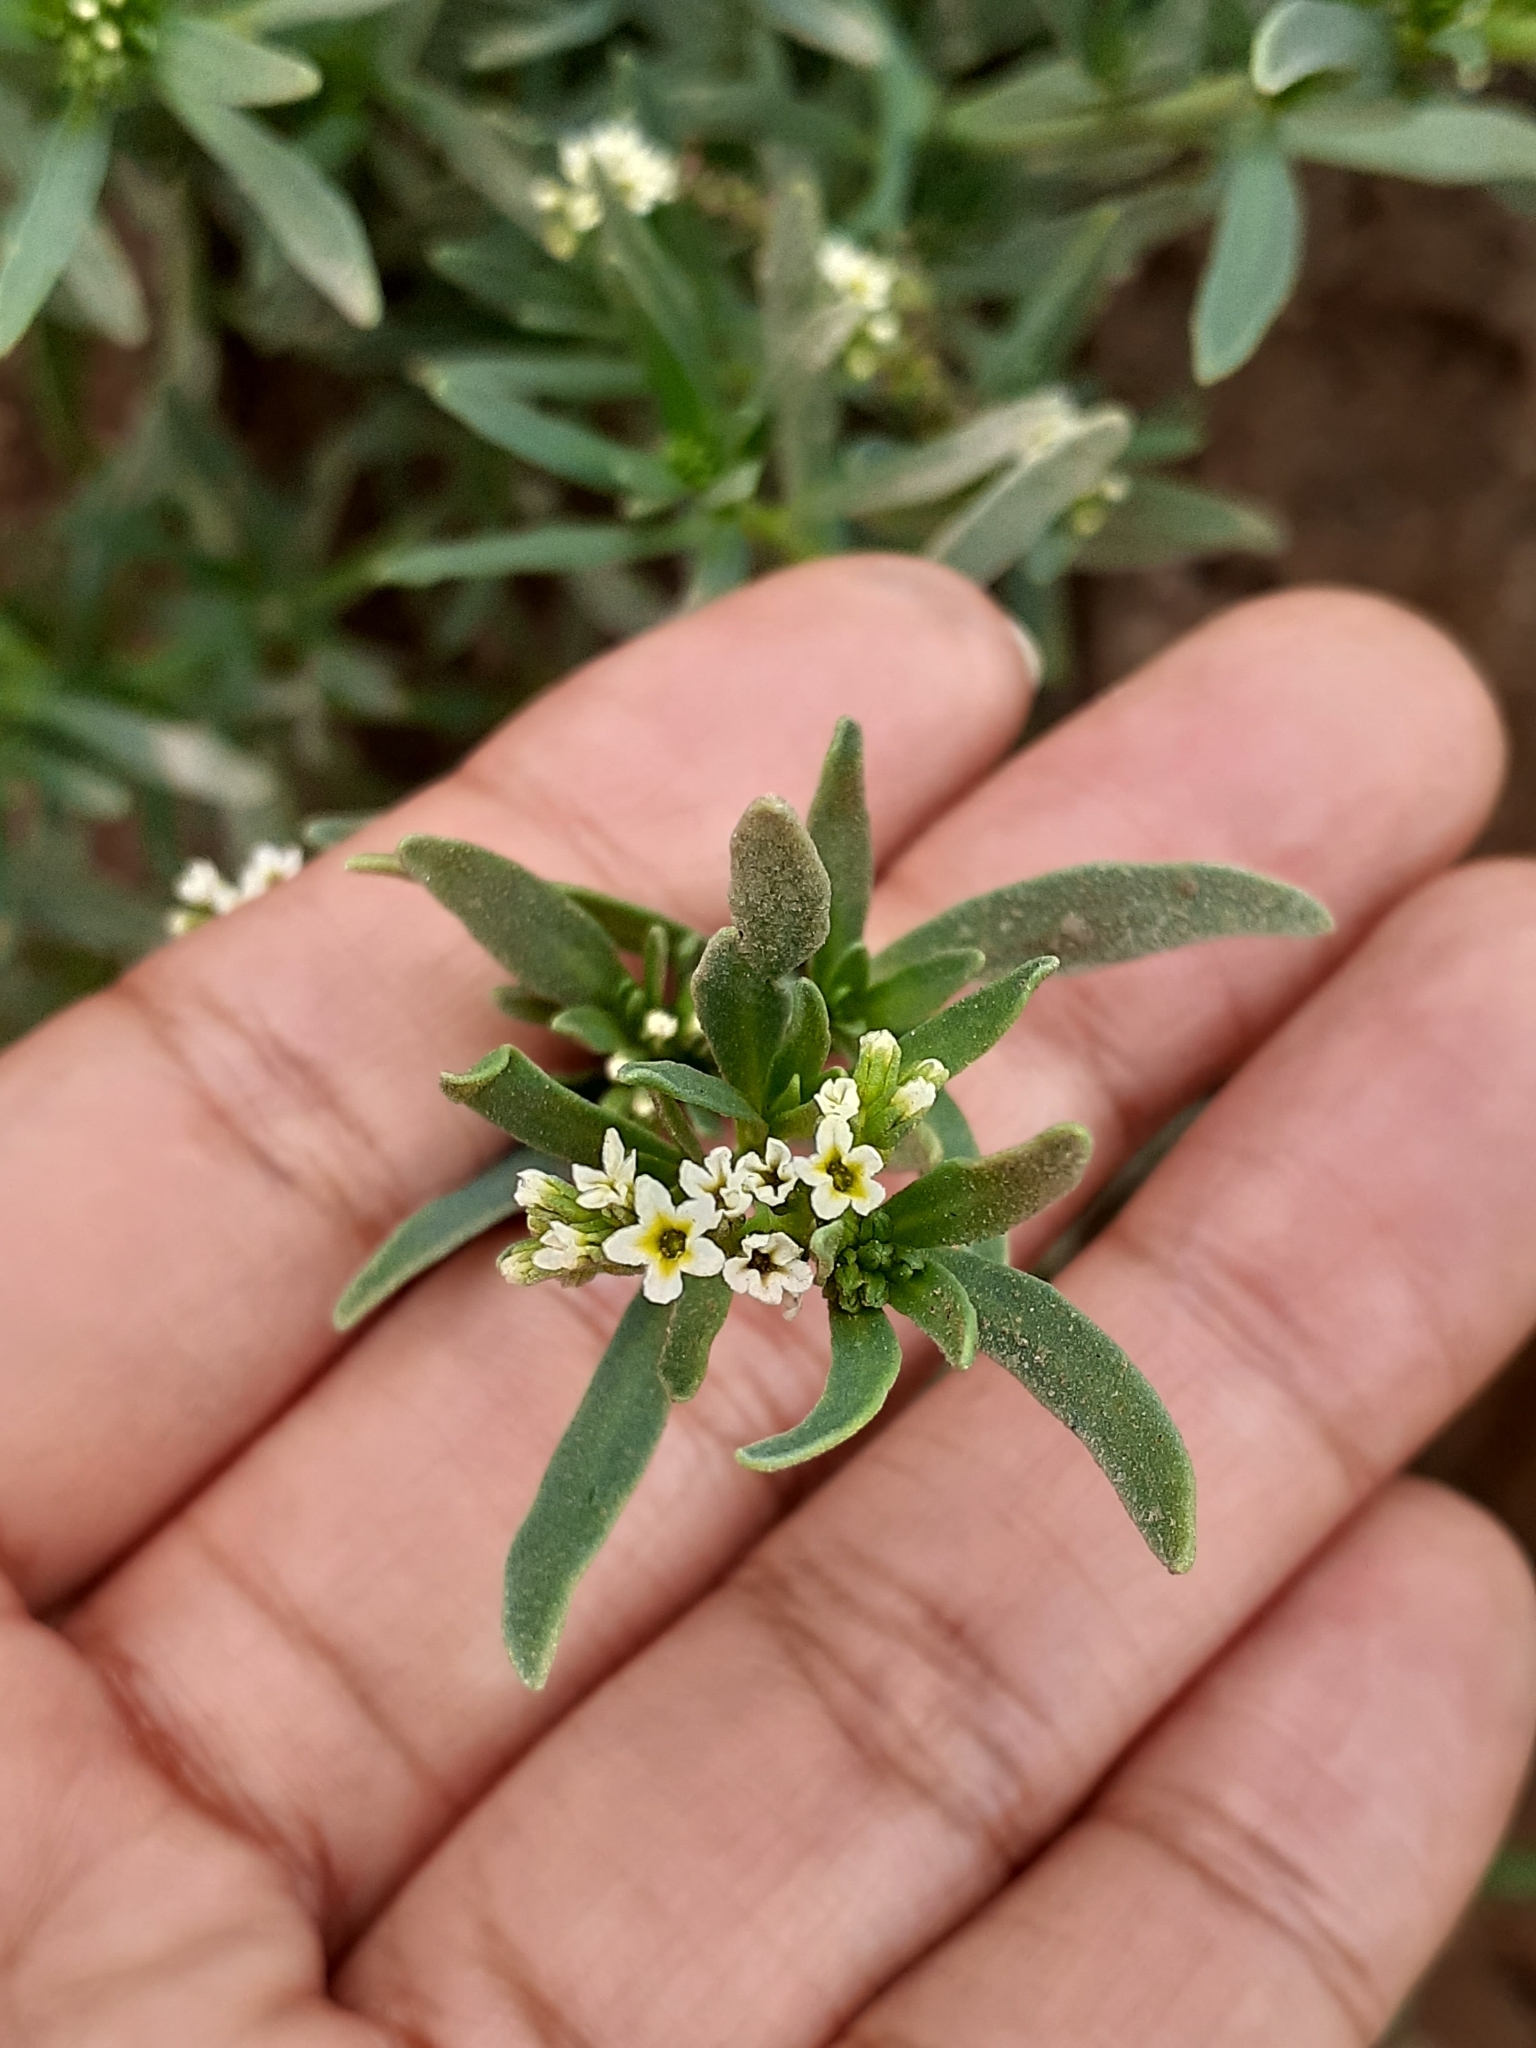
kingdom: Plantae
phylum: Tracheophyta
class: Magnoliopsida
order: Boraginales
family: Heliotropiaceae
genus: Heliotropium
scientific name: Heliotropium curassavicum
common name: Seaside heliotrope
